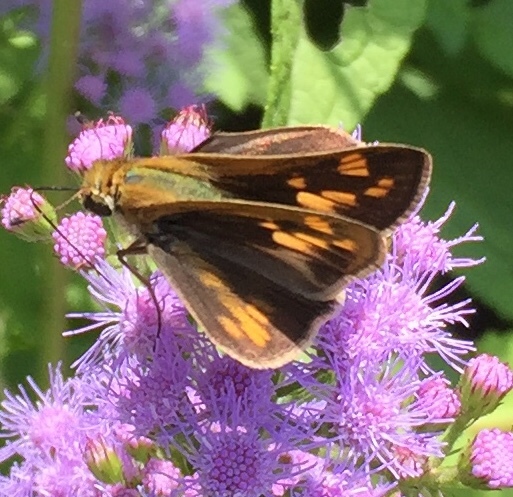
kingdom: Animalia
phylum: Arthropoda
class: Insecta
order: Lepidoptera
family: Hesperiidae
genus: Hylephila
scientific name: Hylephila phyleus
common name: Fiery skipper
